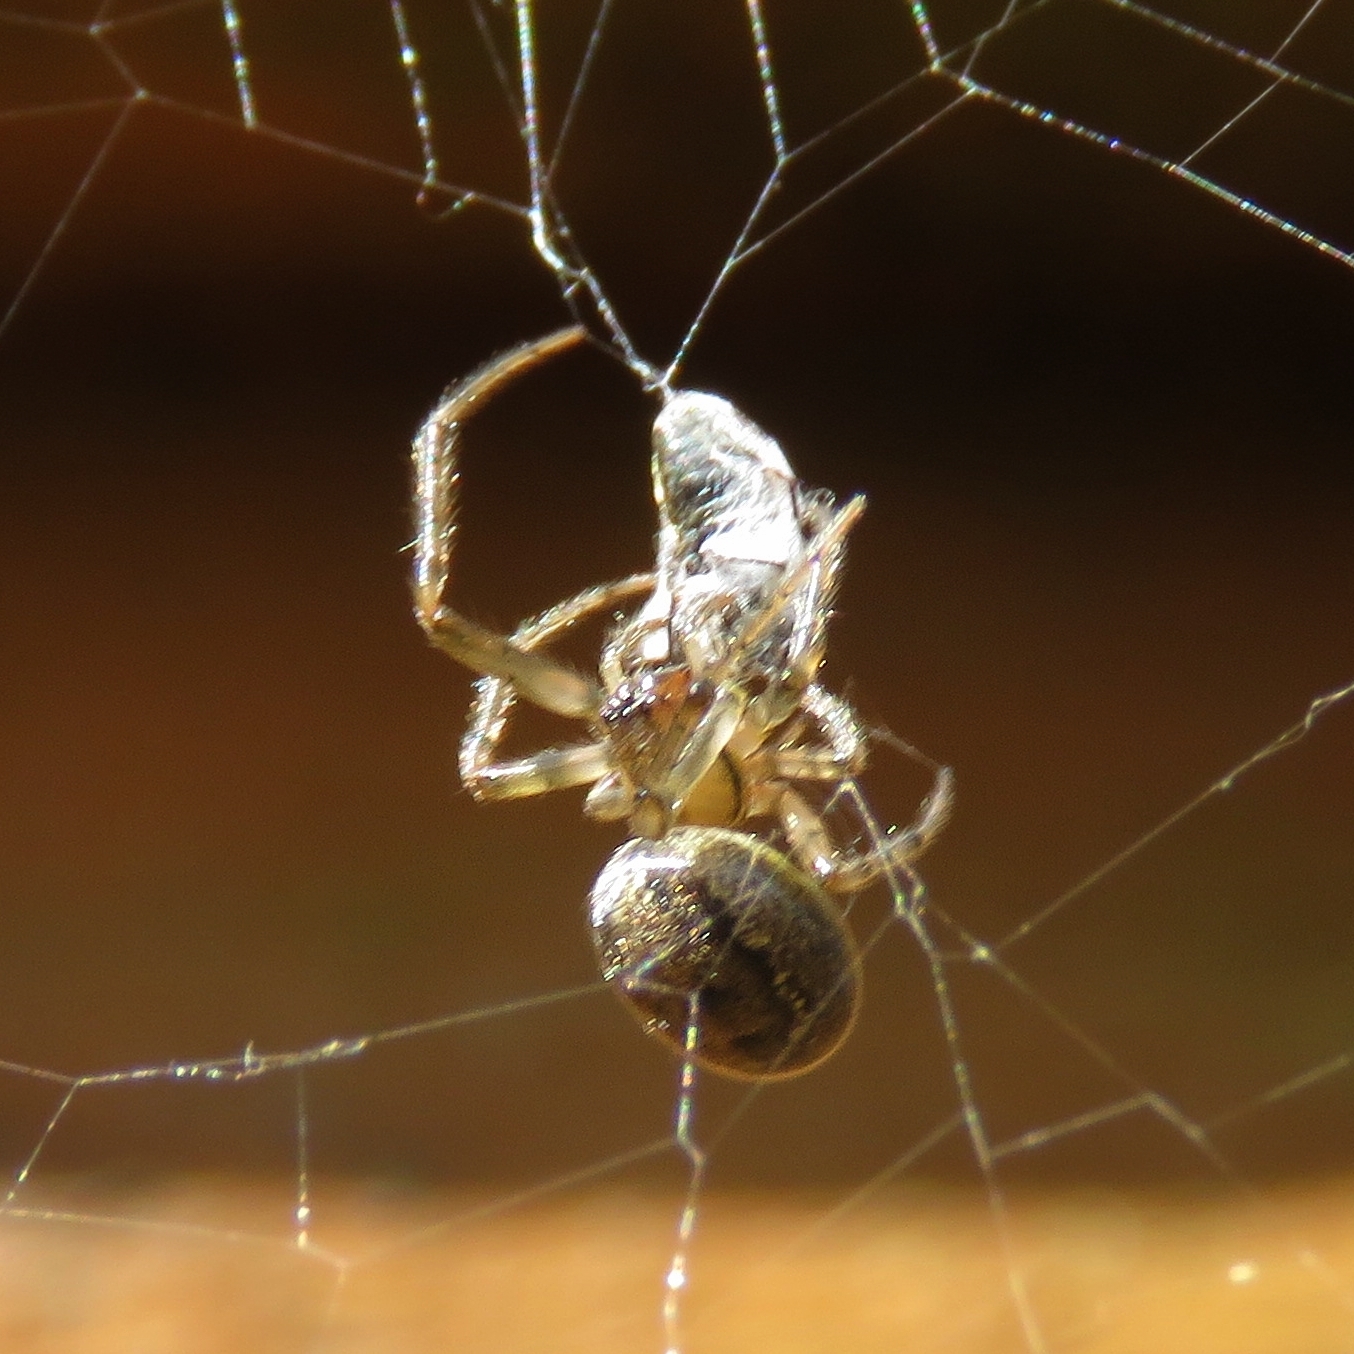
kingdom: Animalia
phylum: Arthropoda
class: Arachnida
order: Araneae
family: Araneidae
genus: Zygiella
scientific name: Zygiella x-notata
